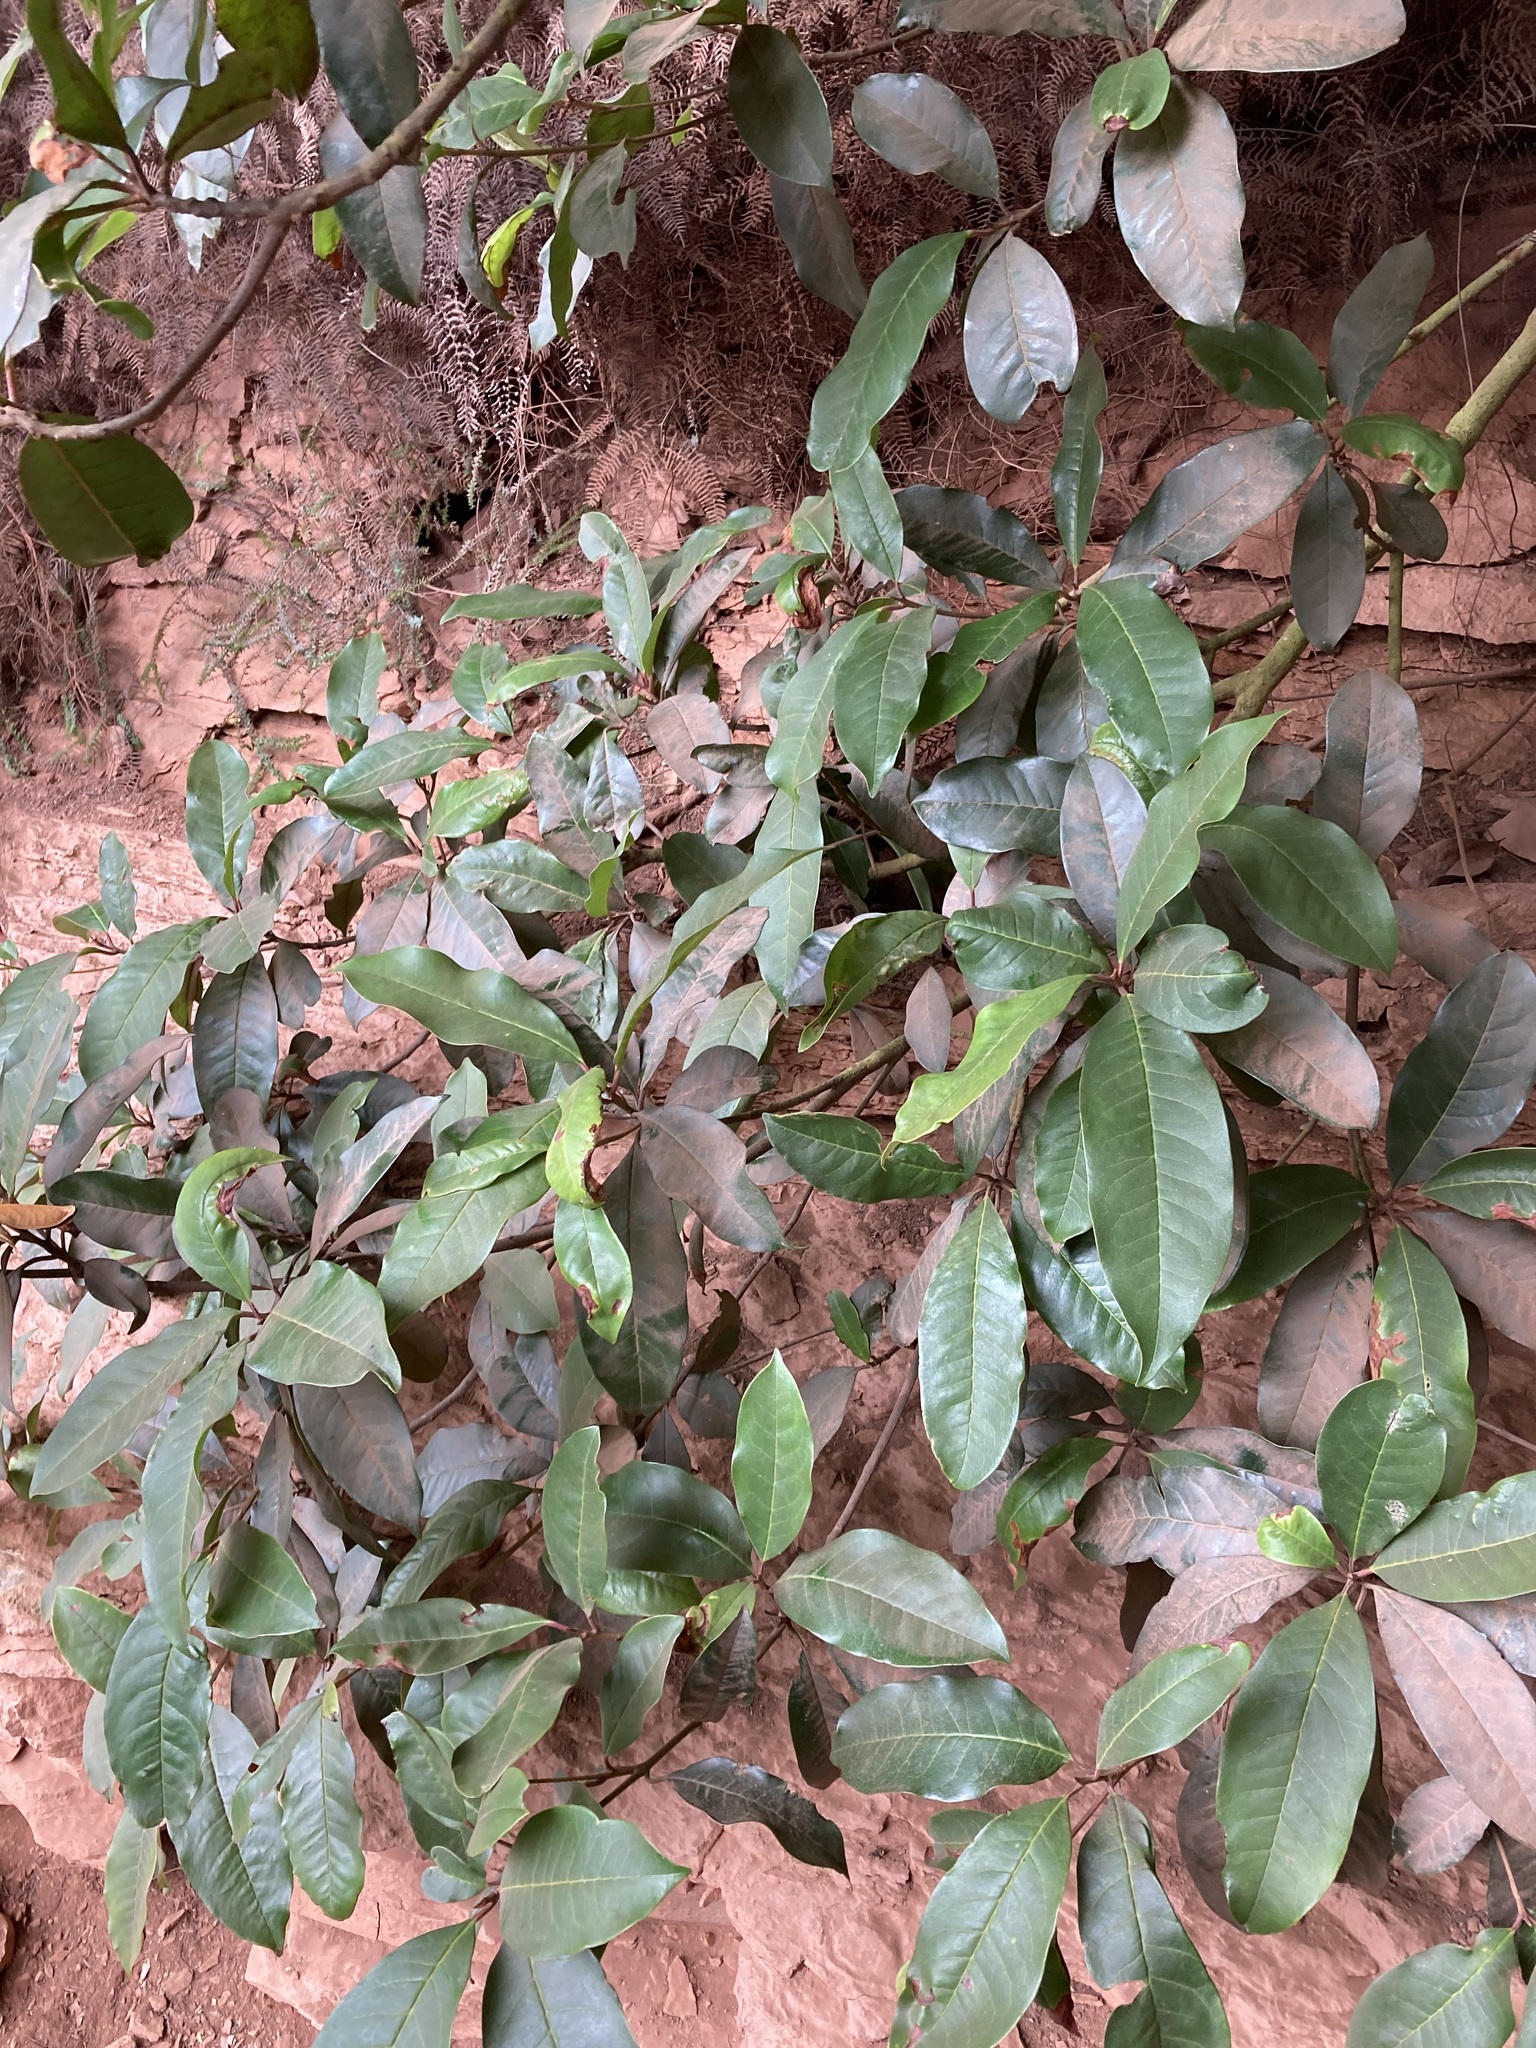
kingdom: Plantae
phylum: Tracheophyta
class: Magnoliopsida
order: Paracryphiales
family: Paracryphiaceae
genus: Quintinia
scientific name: Quintinia sieberi
